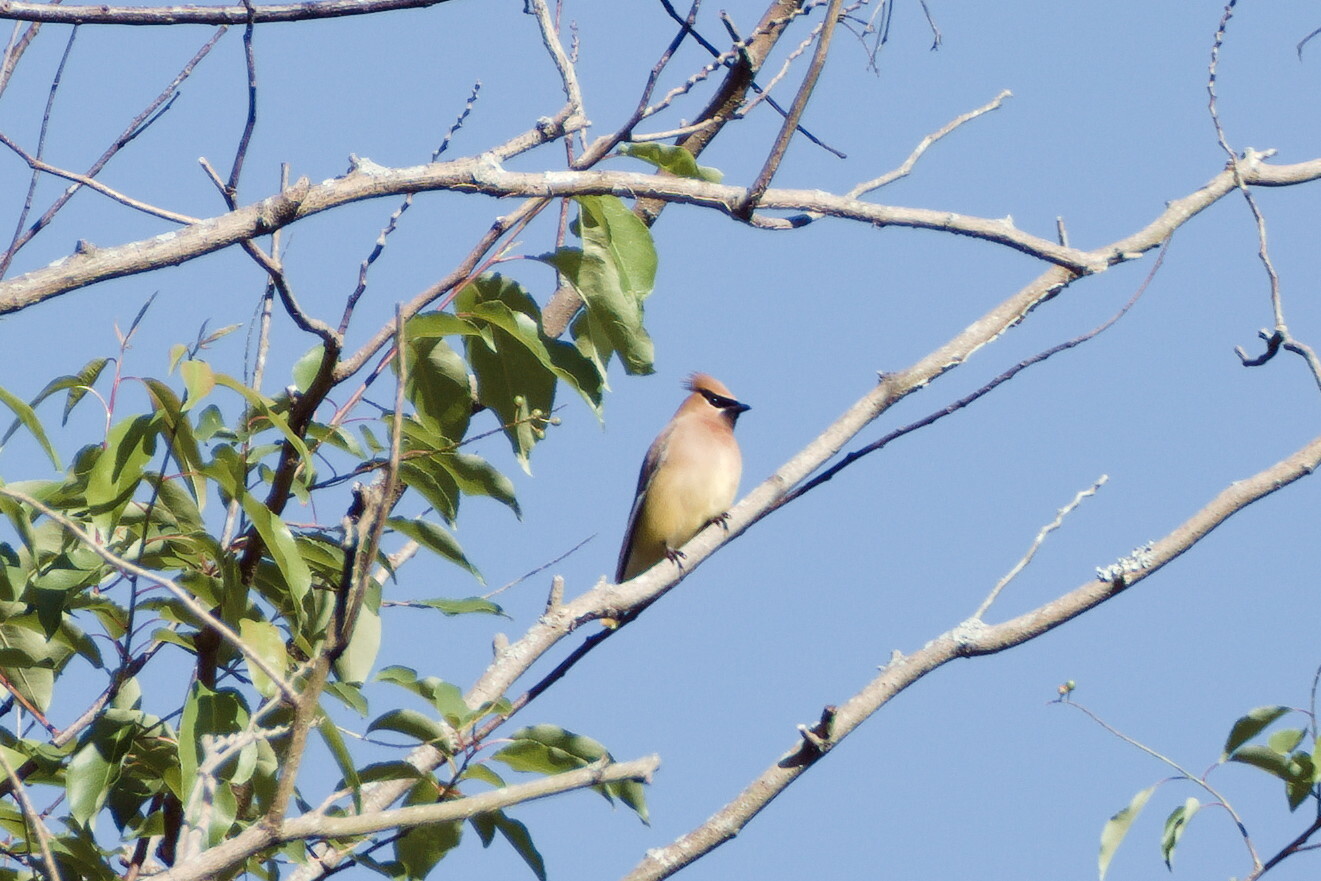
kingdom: Animalia
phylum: Chordata
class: Aves
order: Passeriformes
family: Bombycillidae
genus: Bombycilla
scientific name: Bombycilla cedrorum
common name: Cedar waxwing
